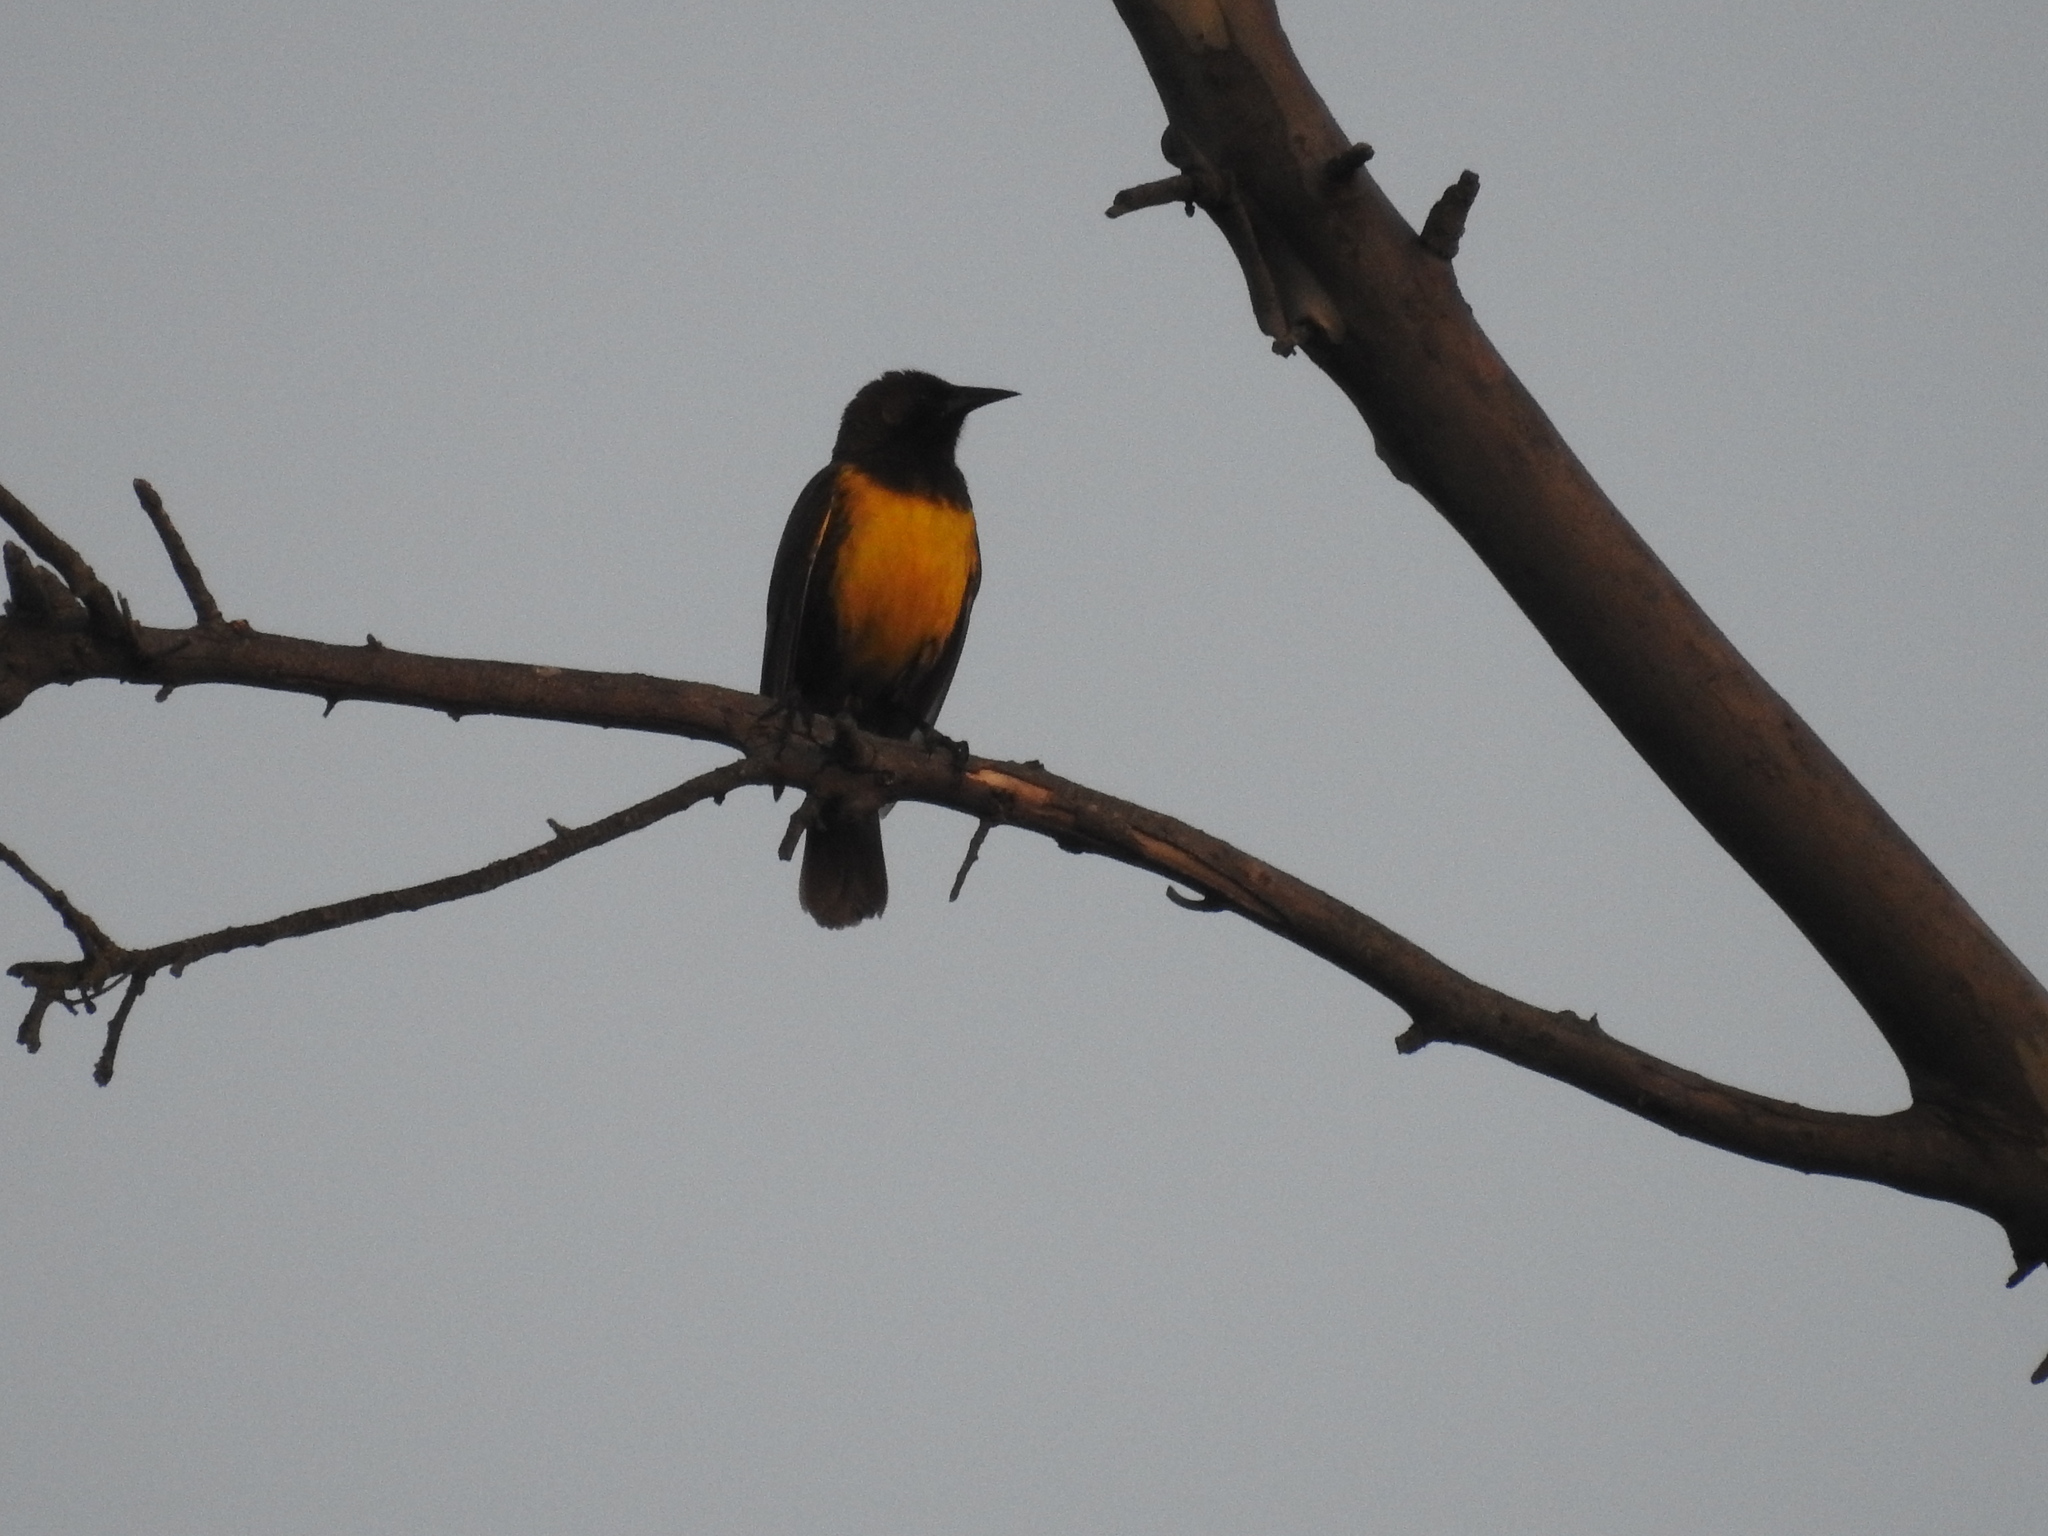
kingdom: Animalia
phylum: Chordata
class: Aves
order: Passeriformes
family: Icteridae
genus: Pseudoleistes
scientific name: Pseudoleistes virescens
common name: Brown-and-yellow marshbird
